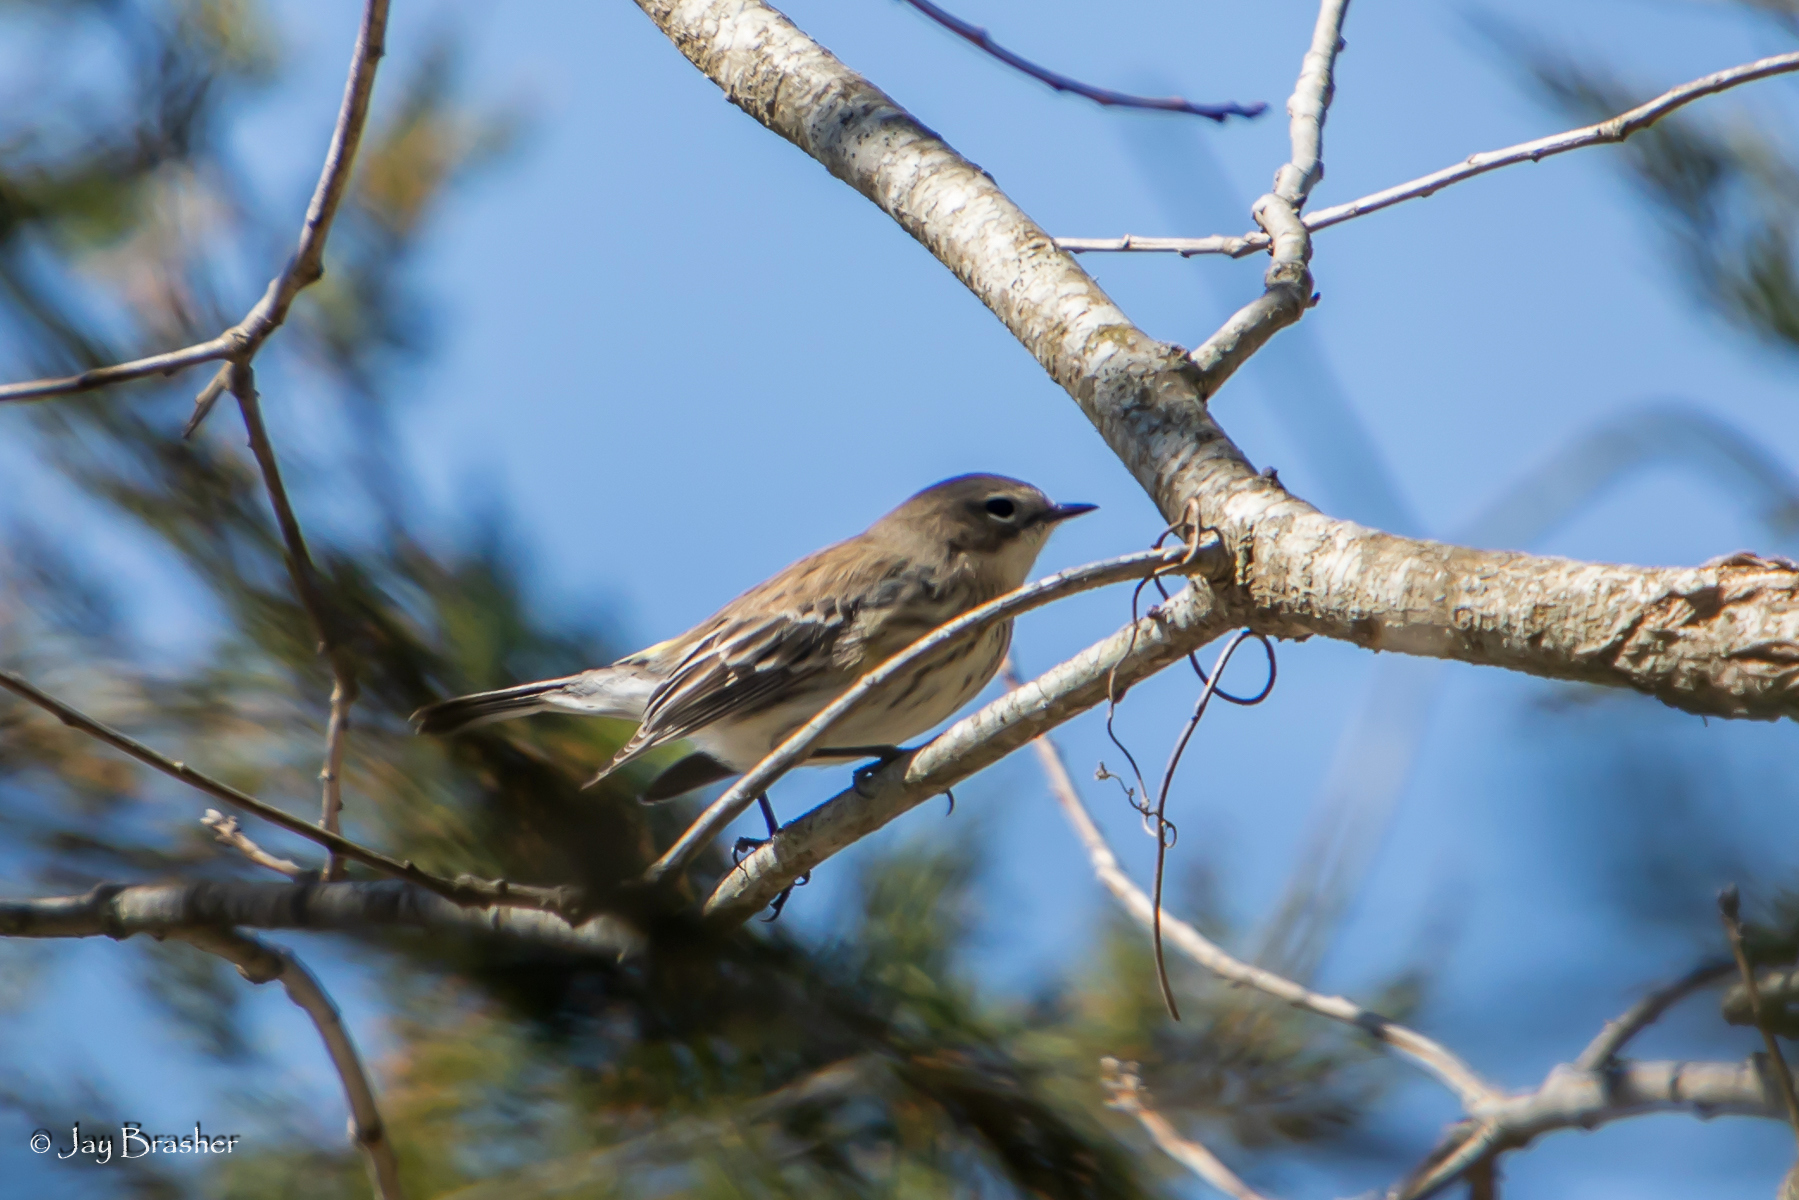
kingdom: Animalia
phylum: Chordata
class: Aves
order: Passeriformes
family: Parulidae
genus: Setophaga
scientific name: Setophaga coronata
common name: Myrtle warbler
